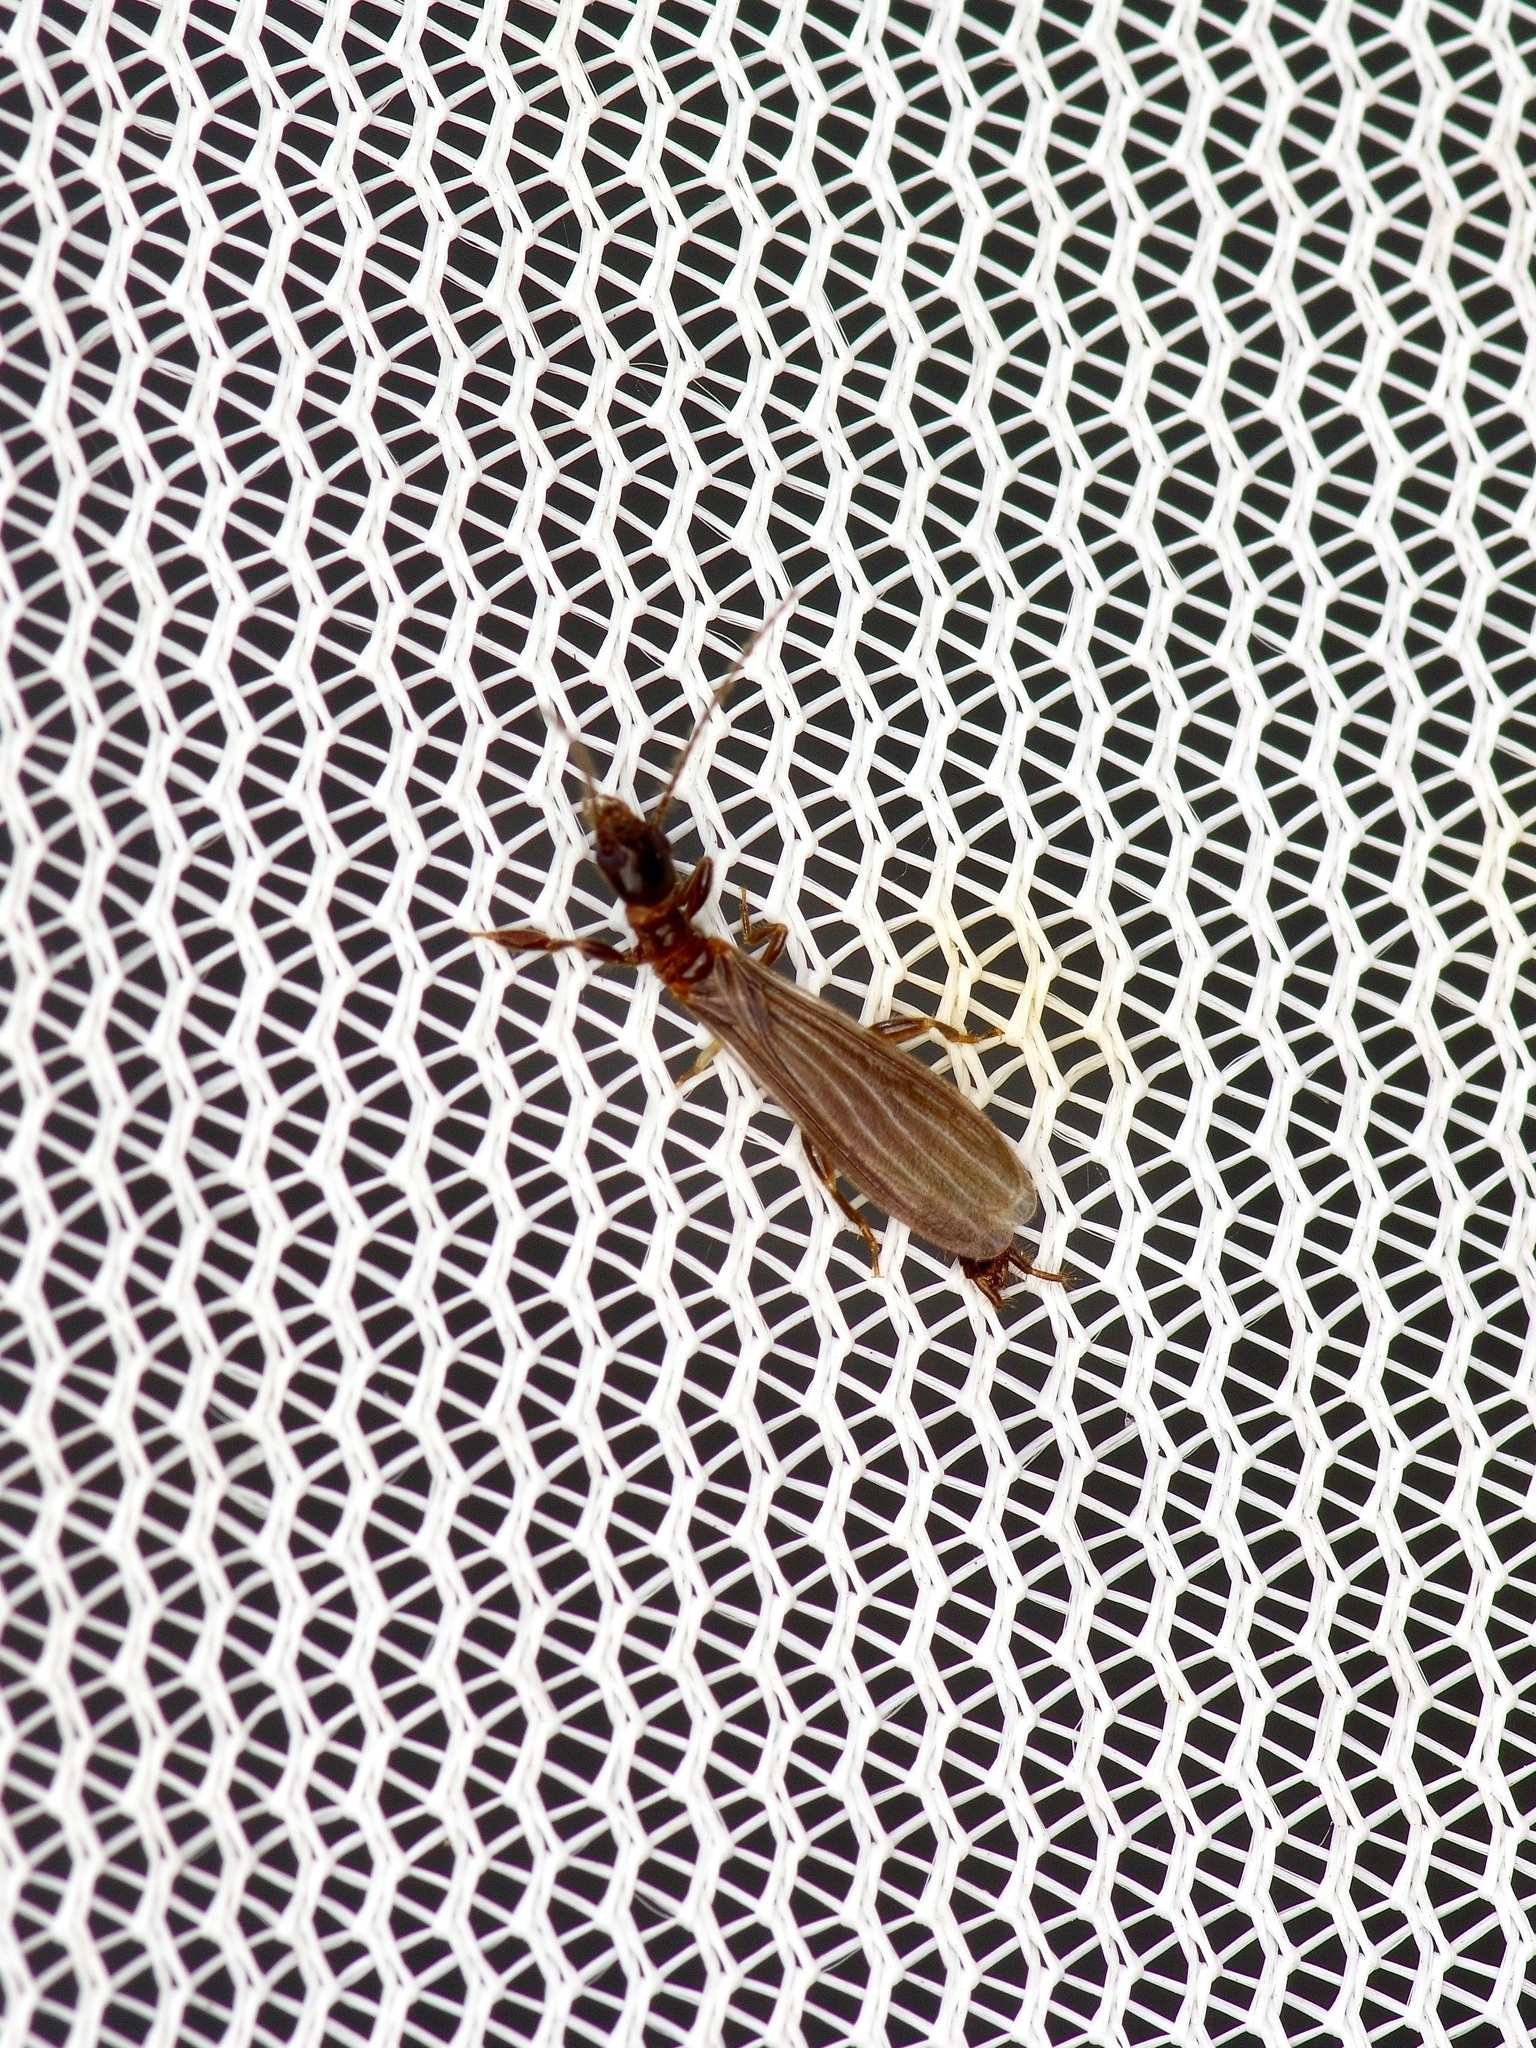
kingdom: Animalia
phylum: Arthropoda
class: Insecta
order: Embioptera
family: Oligotomidae
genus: Oligotoma
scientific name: Oligotoma nigra
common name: Black webspinner
